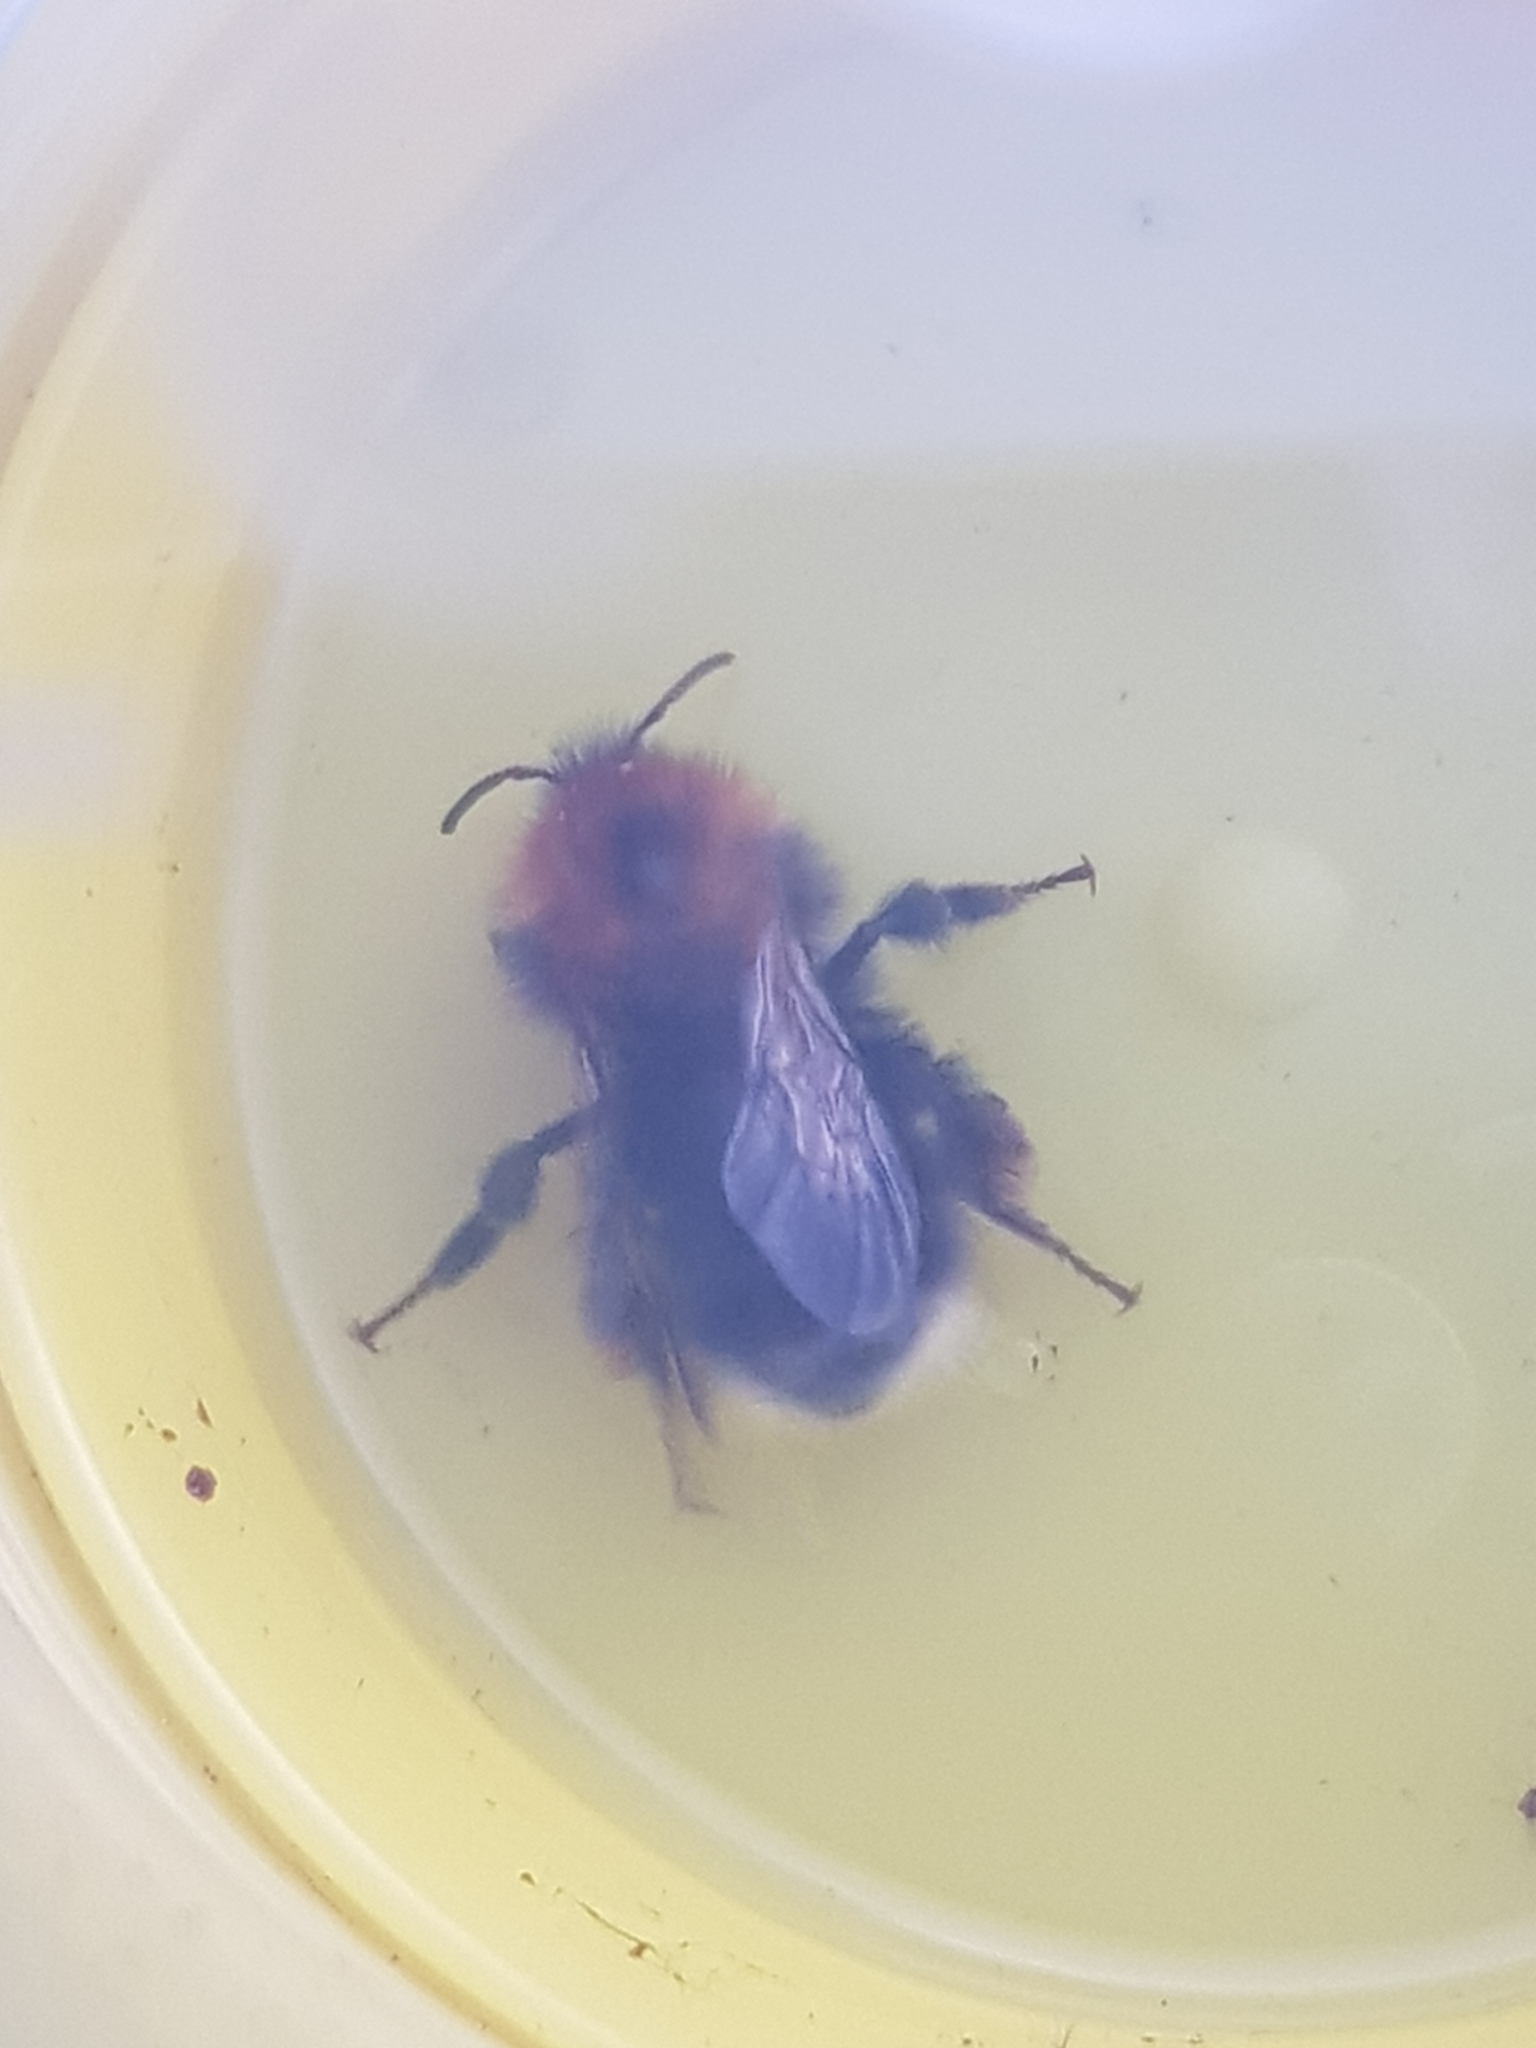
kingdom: Animalia
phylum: Arthropoda
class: Insecta
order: Hymenoptera
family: Apidae
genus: Bombus
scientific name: Bombus hypnorum
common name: New garden bumblebee
